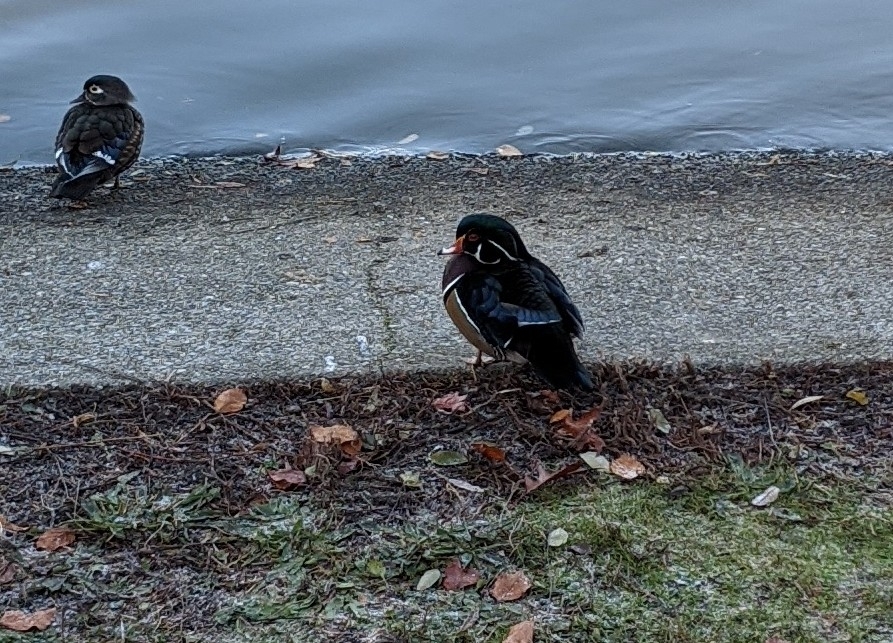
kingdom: Animalia
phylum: Chordata
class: Aves
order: Anseriformes
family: Anatidae
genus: Aix
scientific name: Aix sponsa
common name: Wood duck
